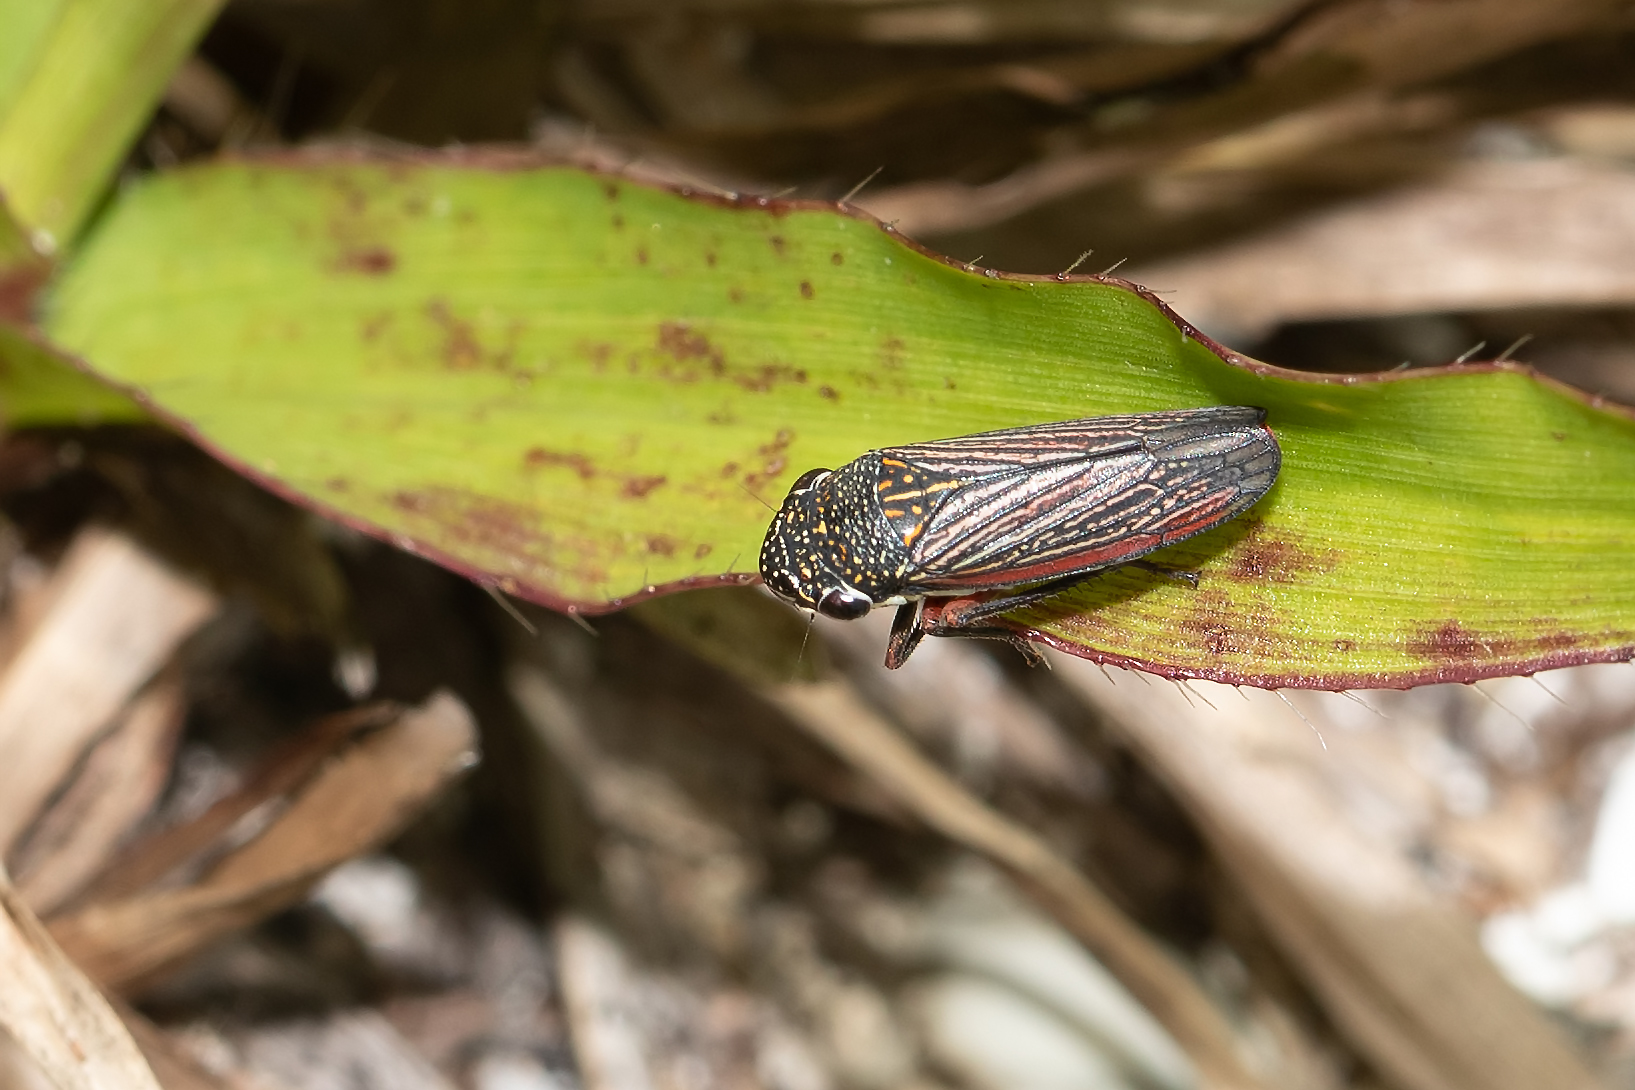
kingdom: Animalia
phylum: Arthropoda
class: Insecta
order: Hemiptera
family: Cicadellidae
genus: Cuerna
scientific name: Cuerna costalis
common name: Lateral-lined sharpshooter
